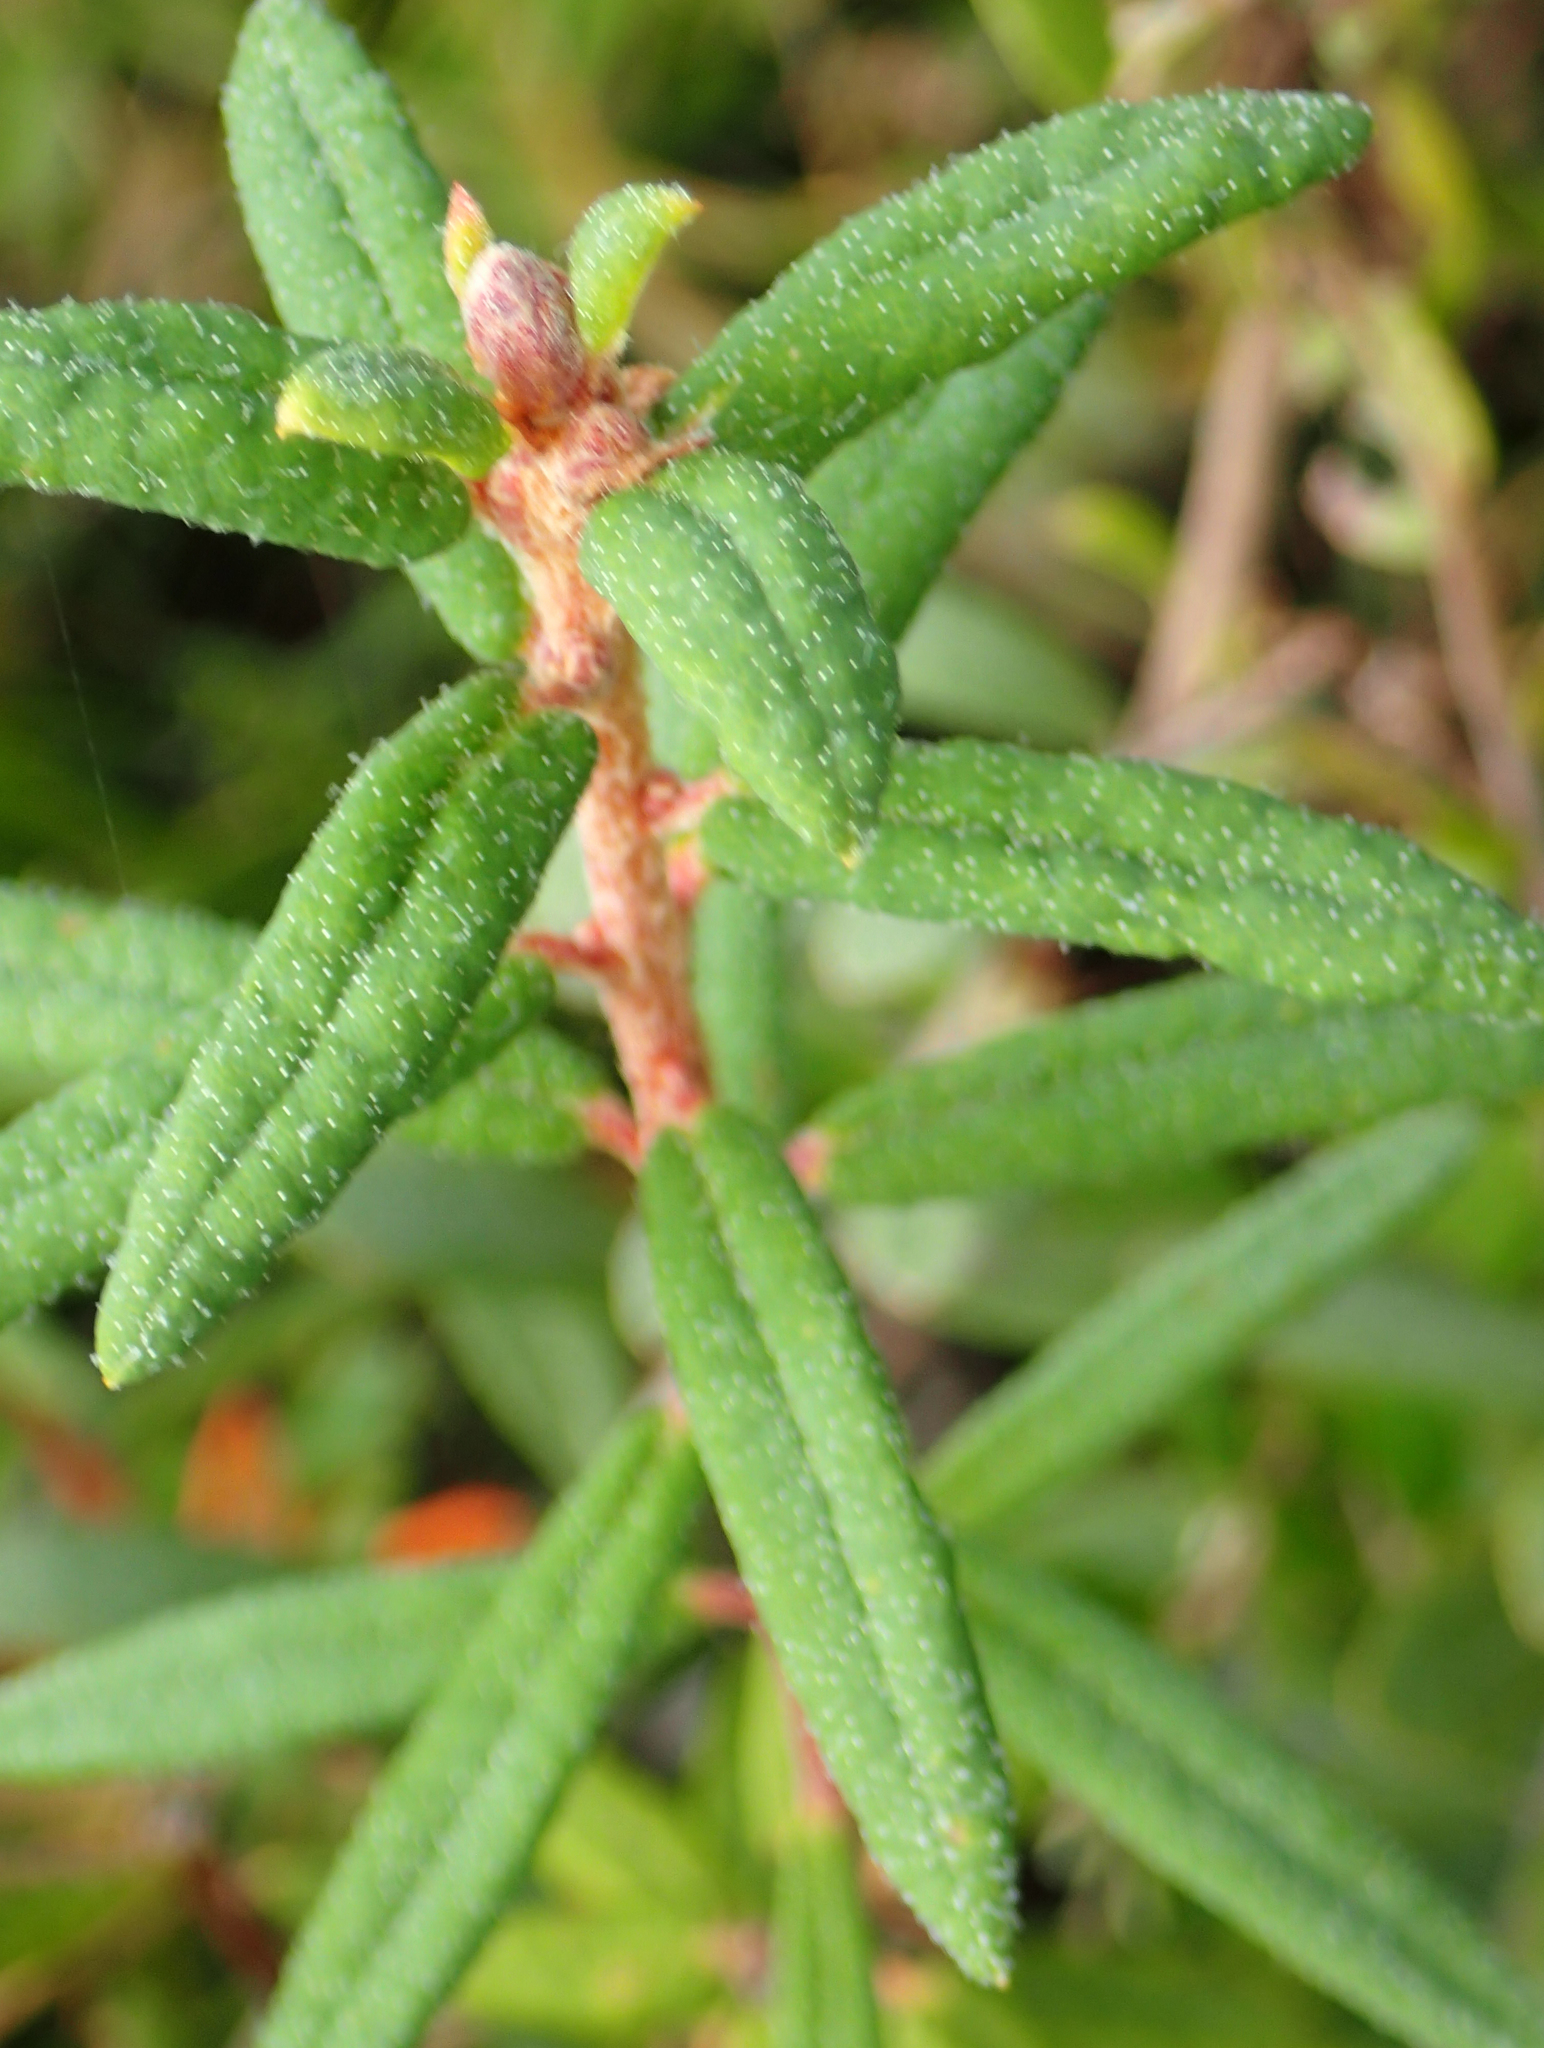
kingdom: Plantae
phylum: Tracheophyta
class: Magnoliopsida
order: Ericales
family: Ericaceae
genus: Rhododendron
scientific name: Rhododendron groenlandicum
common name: Bog labrador tea
